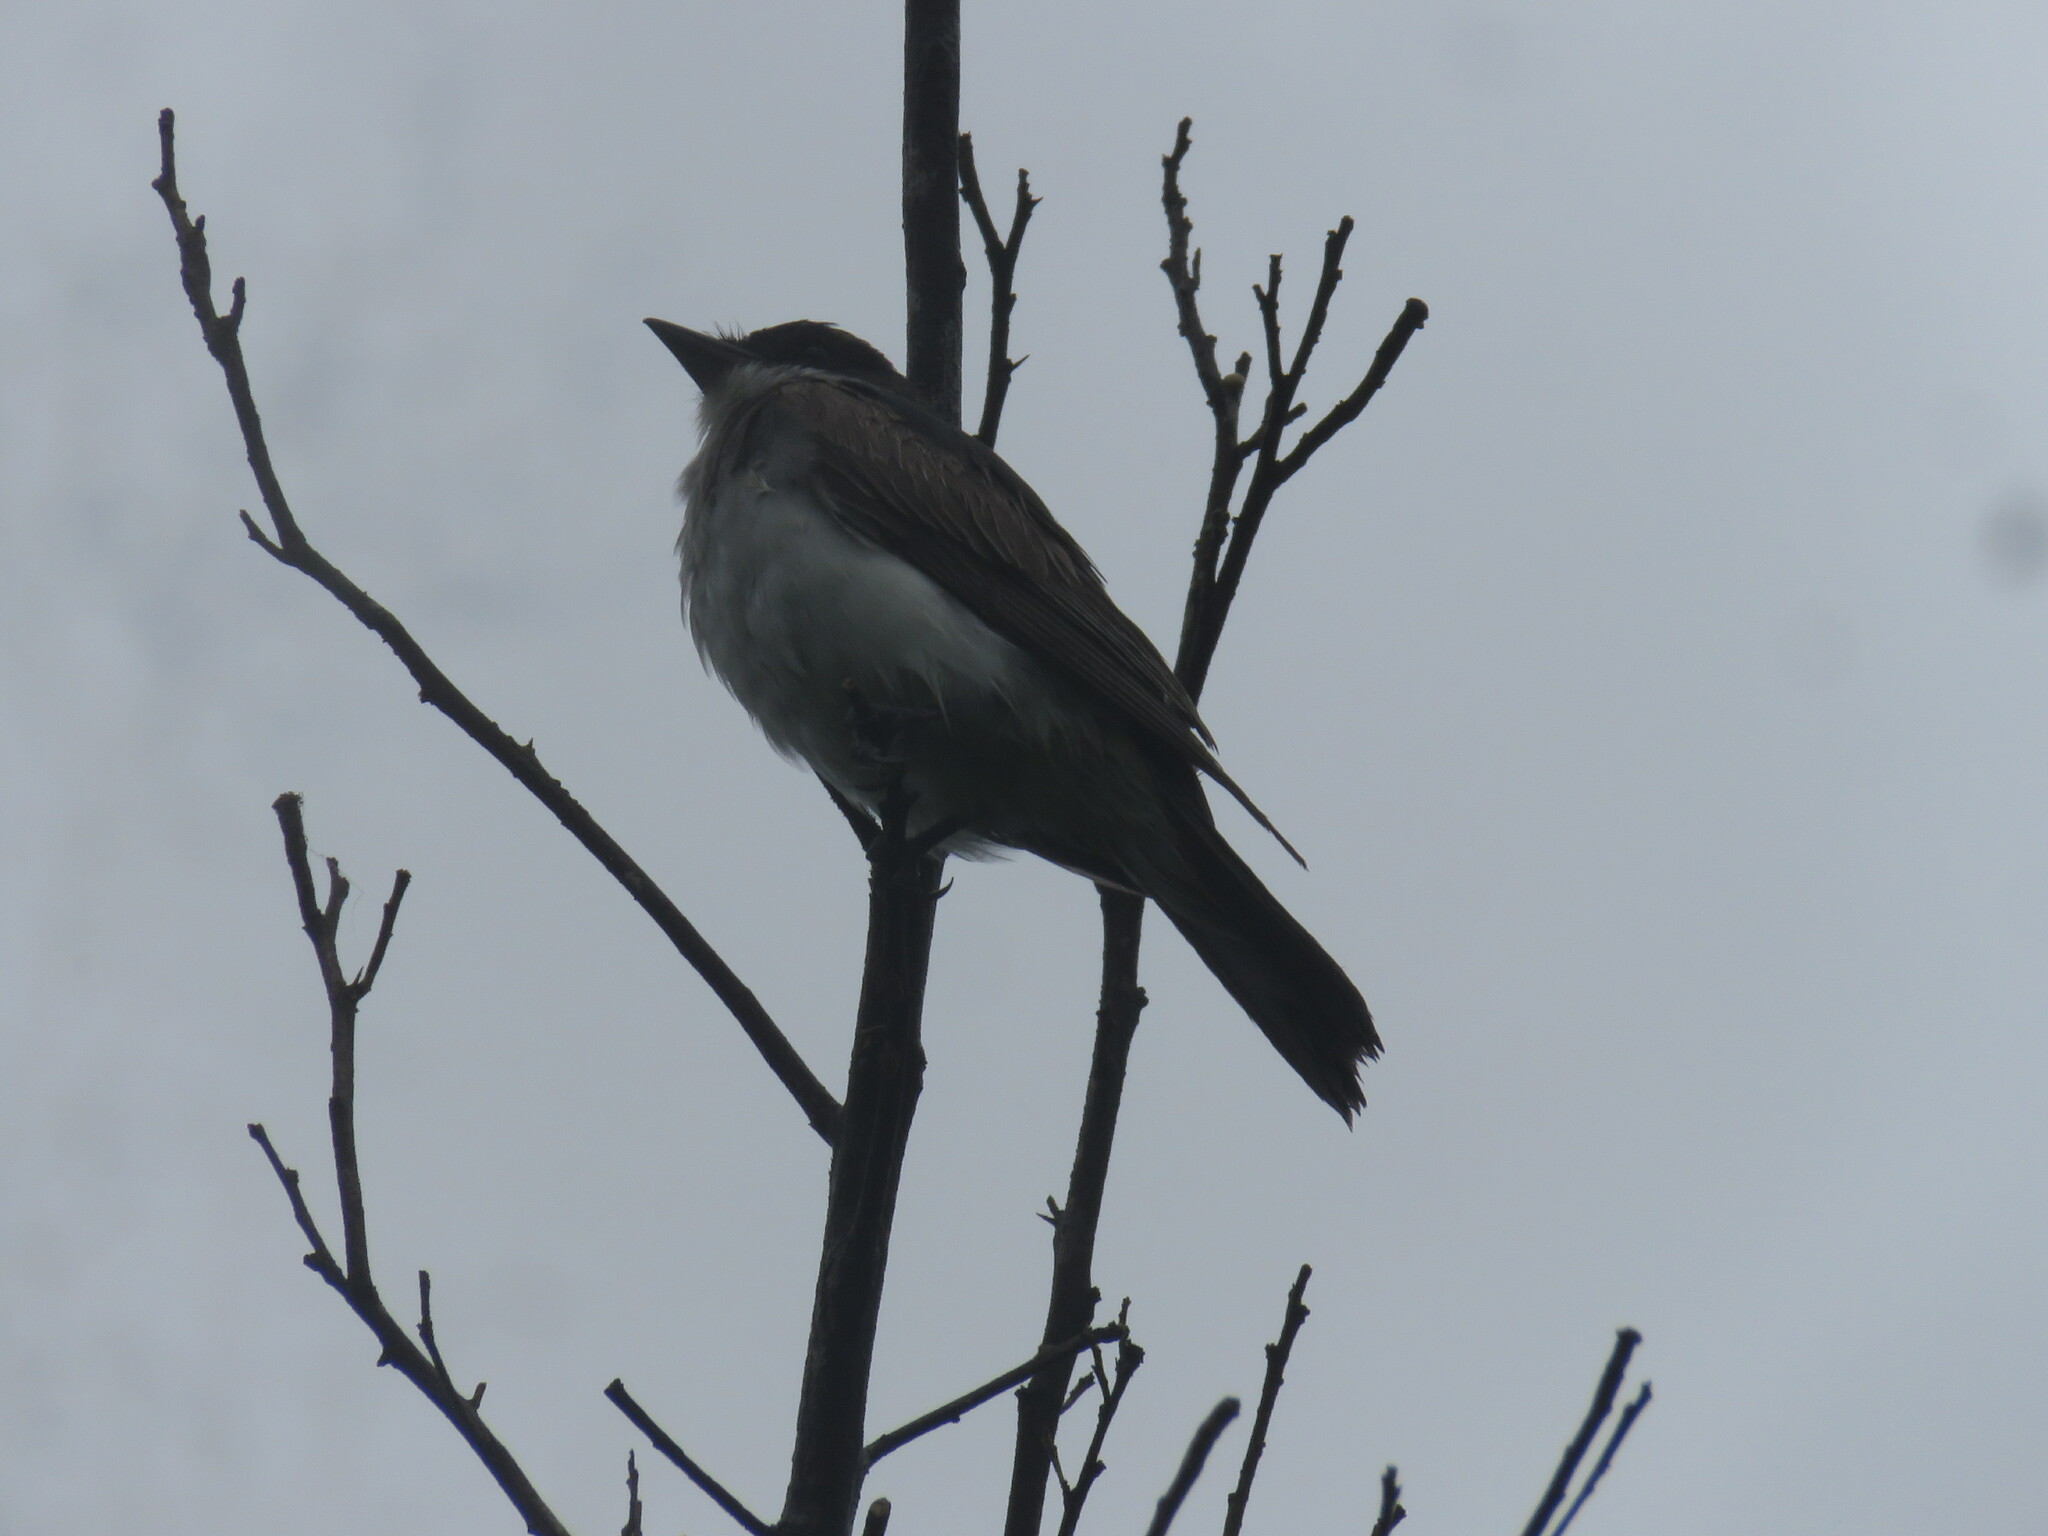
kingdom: Animalia
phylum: Chordata
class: Aves
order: Passeriformes
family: Tyrannidae
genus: Tyrannus
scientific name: Tyrannus tyrannus
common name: Eastern kingbird
